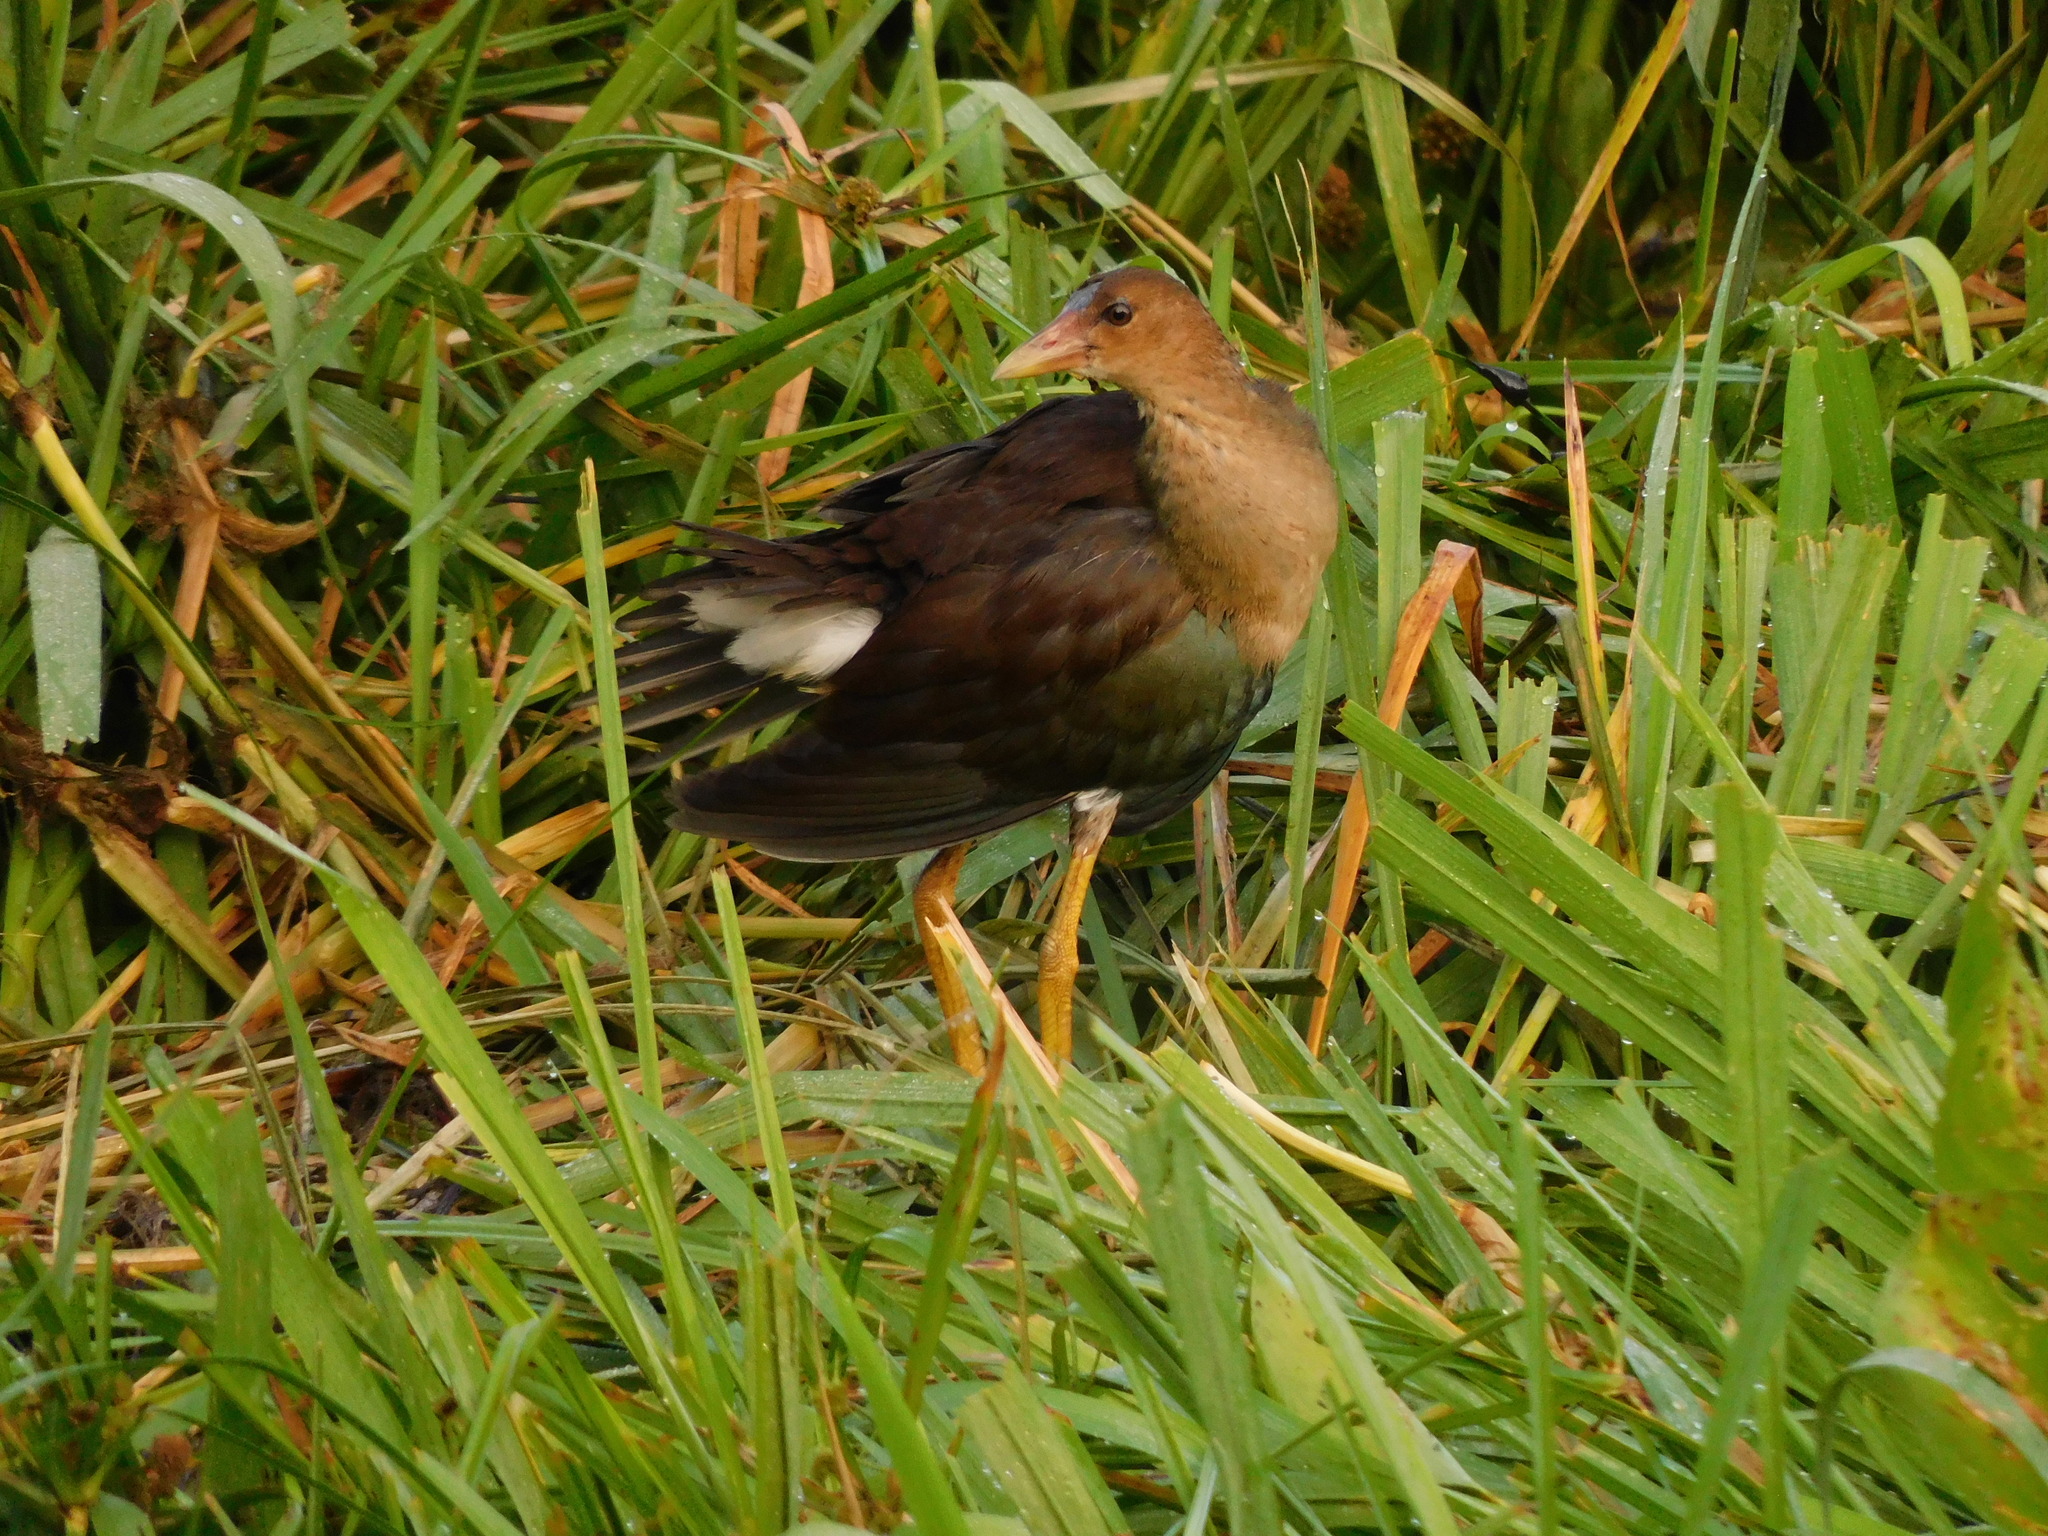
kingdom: Animalia
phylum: Chordata
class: Aves
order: Gruiformes
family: Rallidae
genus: Porphyrio
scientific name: Porphyrio martinica
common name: Purple gallinule
